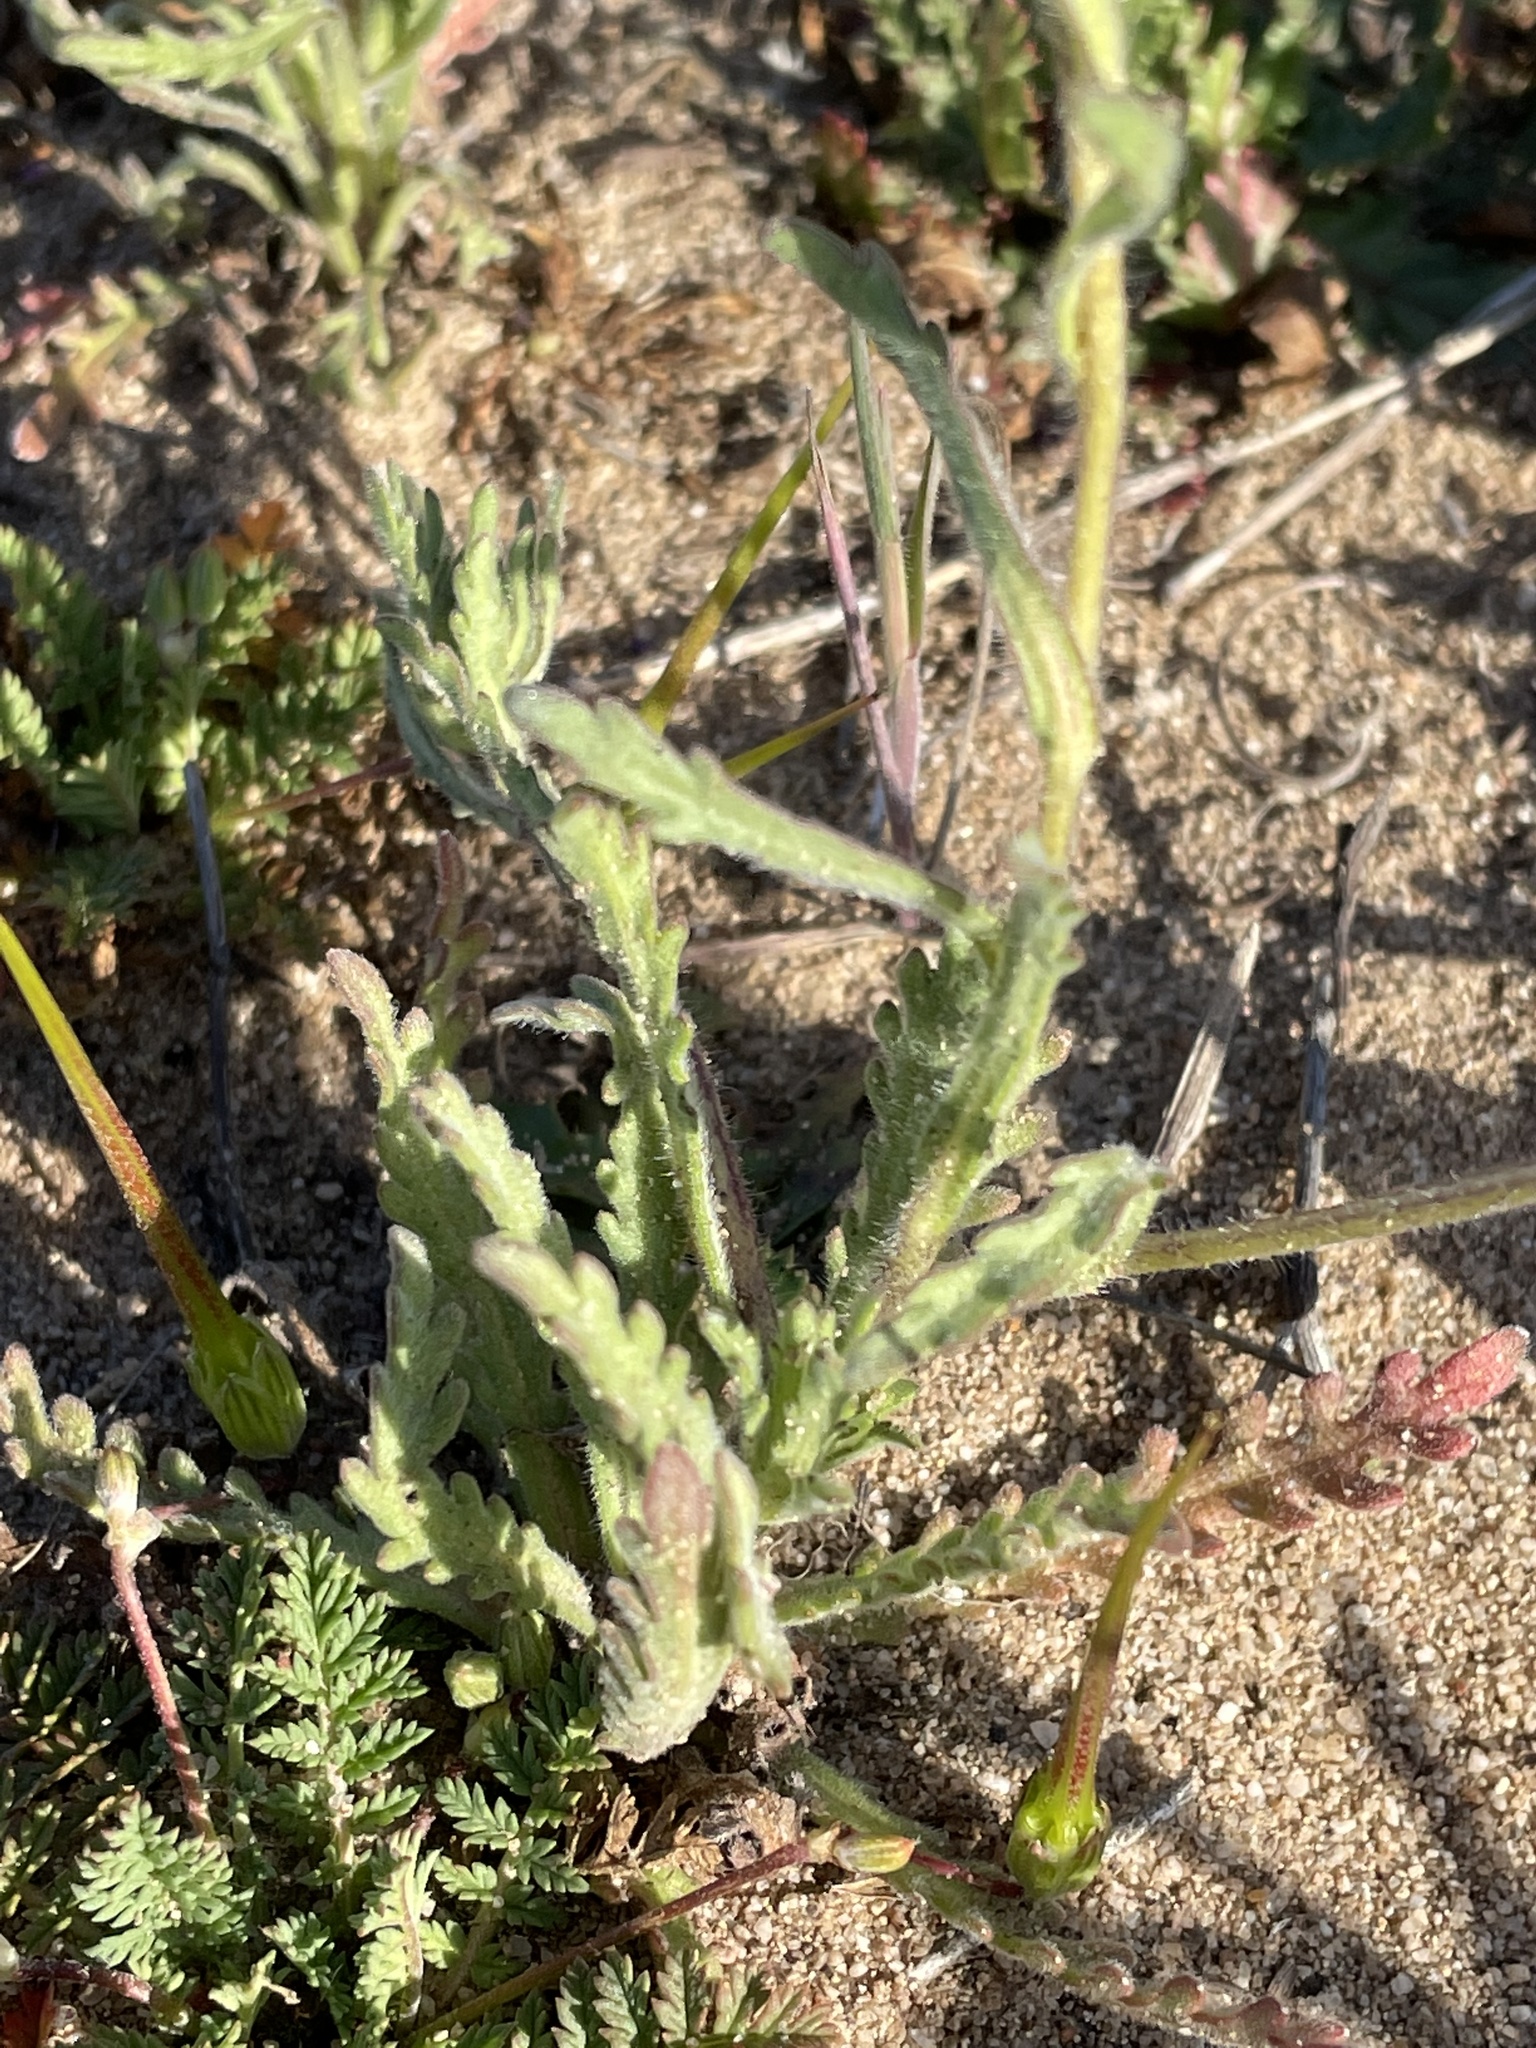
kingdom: Plantae
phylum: Tracheophyta
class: Magnoliopsida
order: Asterales
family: Asteraceae
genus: Layia
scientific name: Layia platyglossa
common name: Tidy-tips
